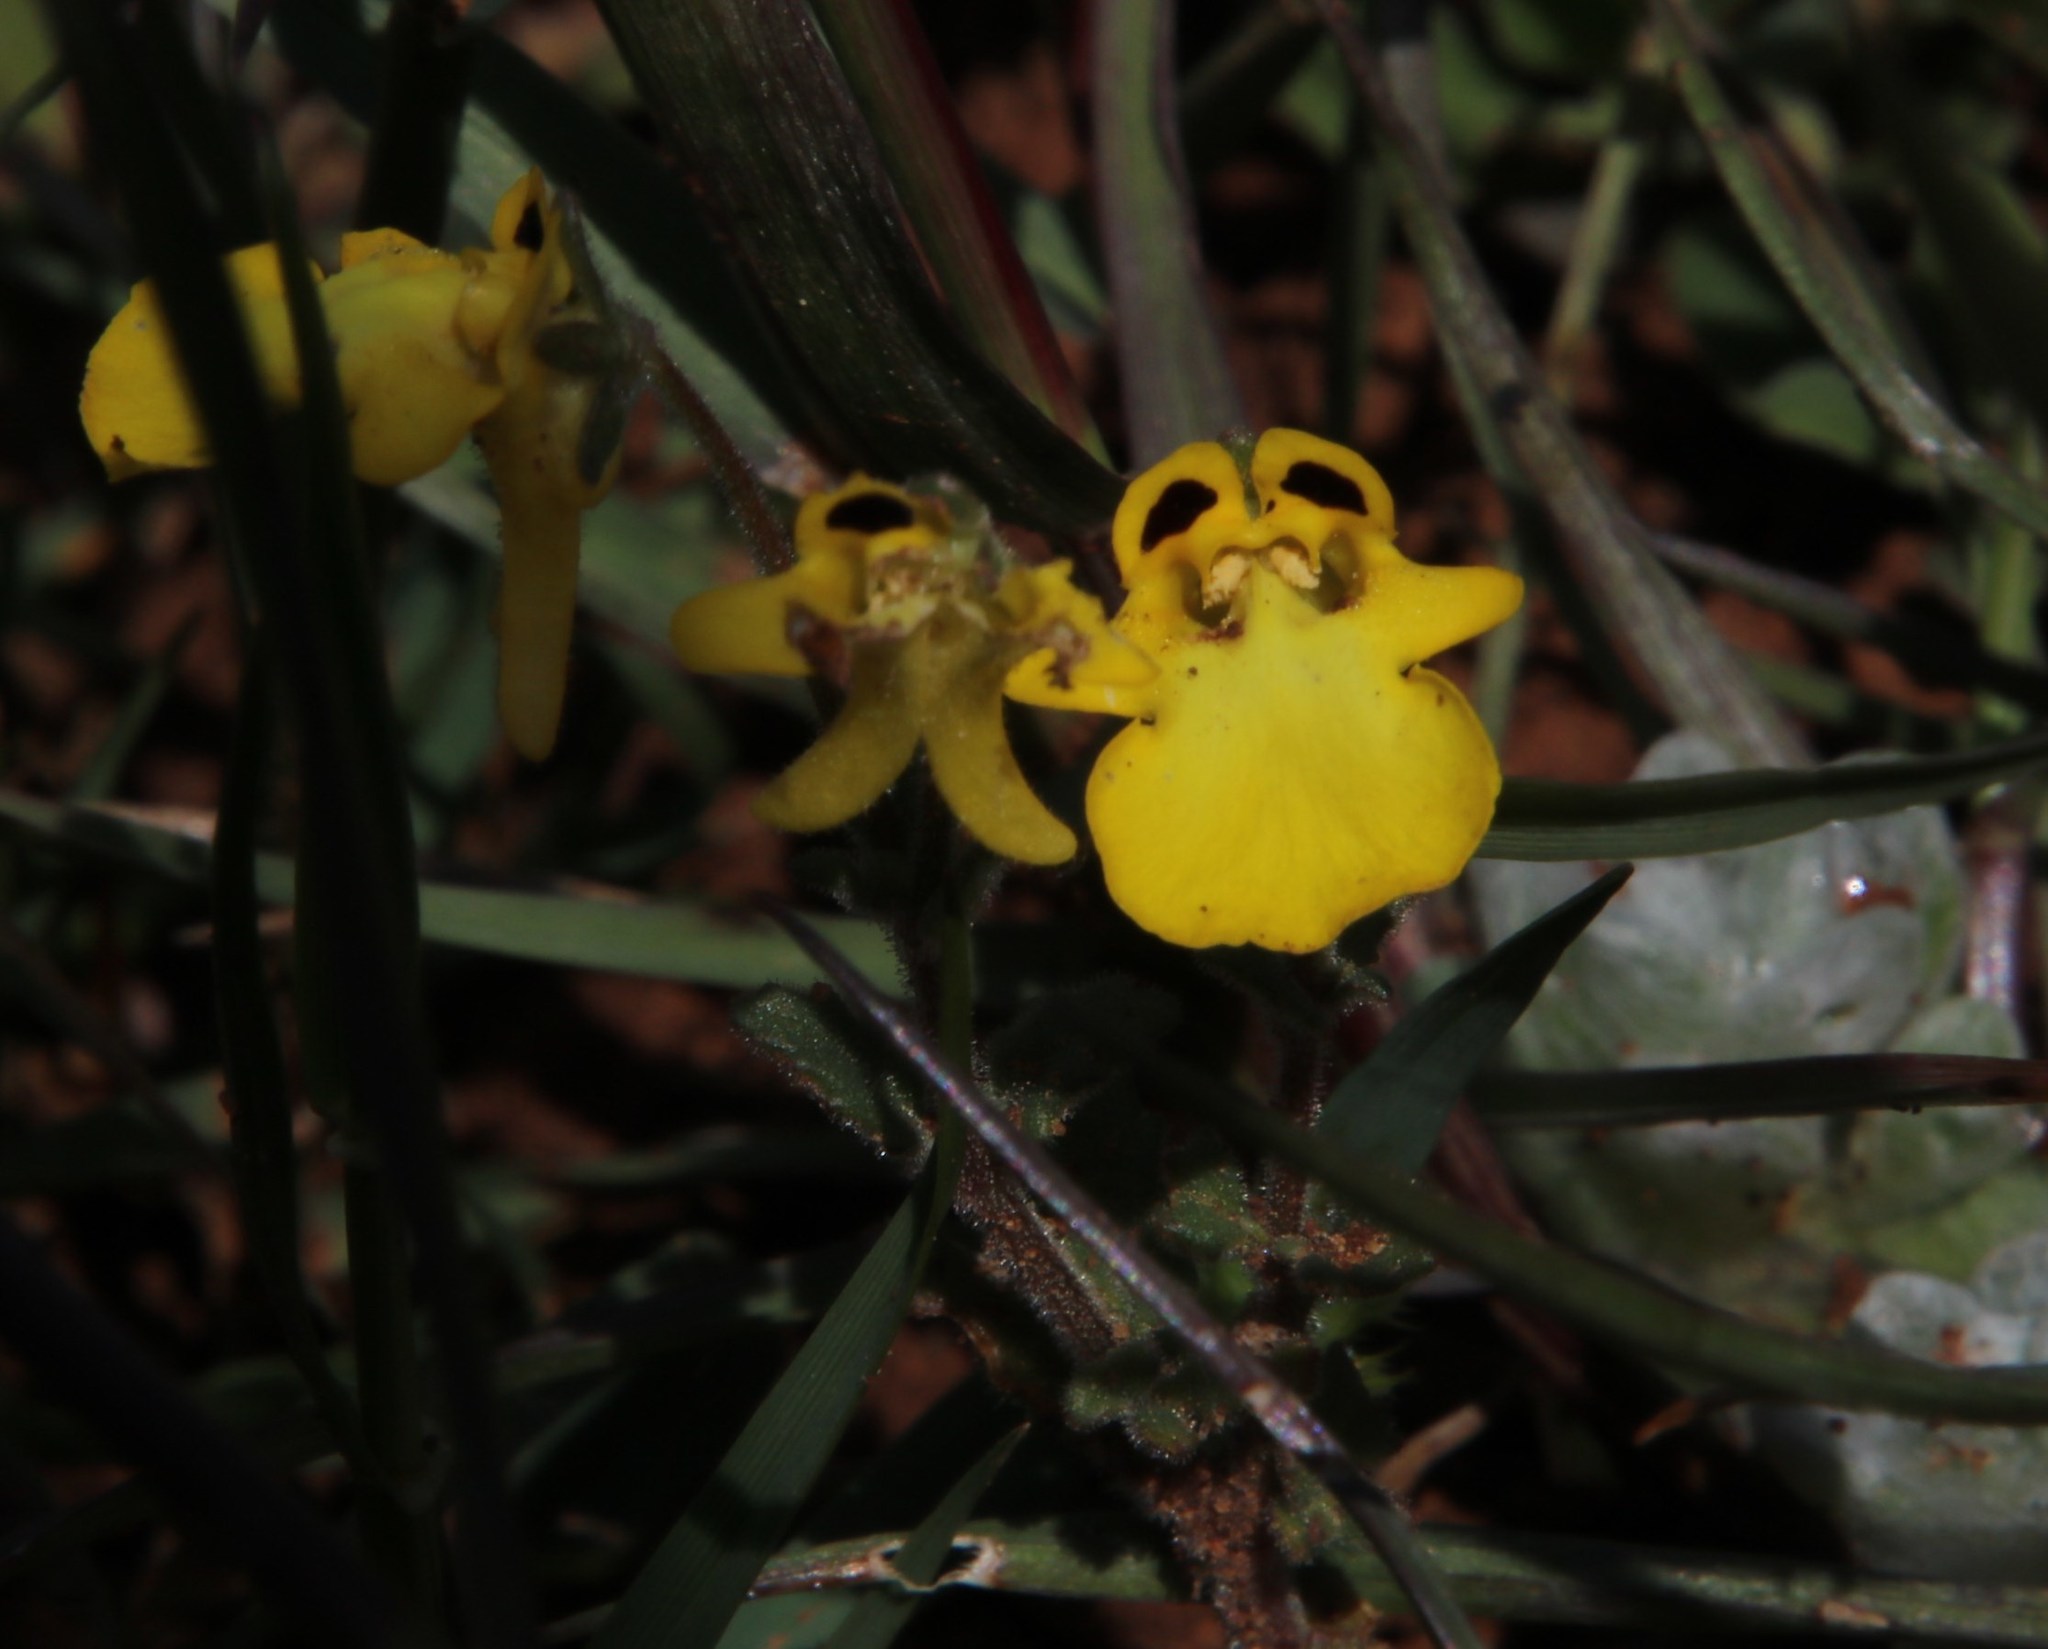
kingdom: Plantae
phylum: Tracheophyta
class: Magnoliopsida
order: Lamiales
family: Scrophulariaceae
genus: Hemimeris
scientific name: Hemimeris centrodes
